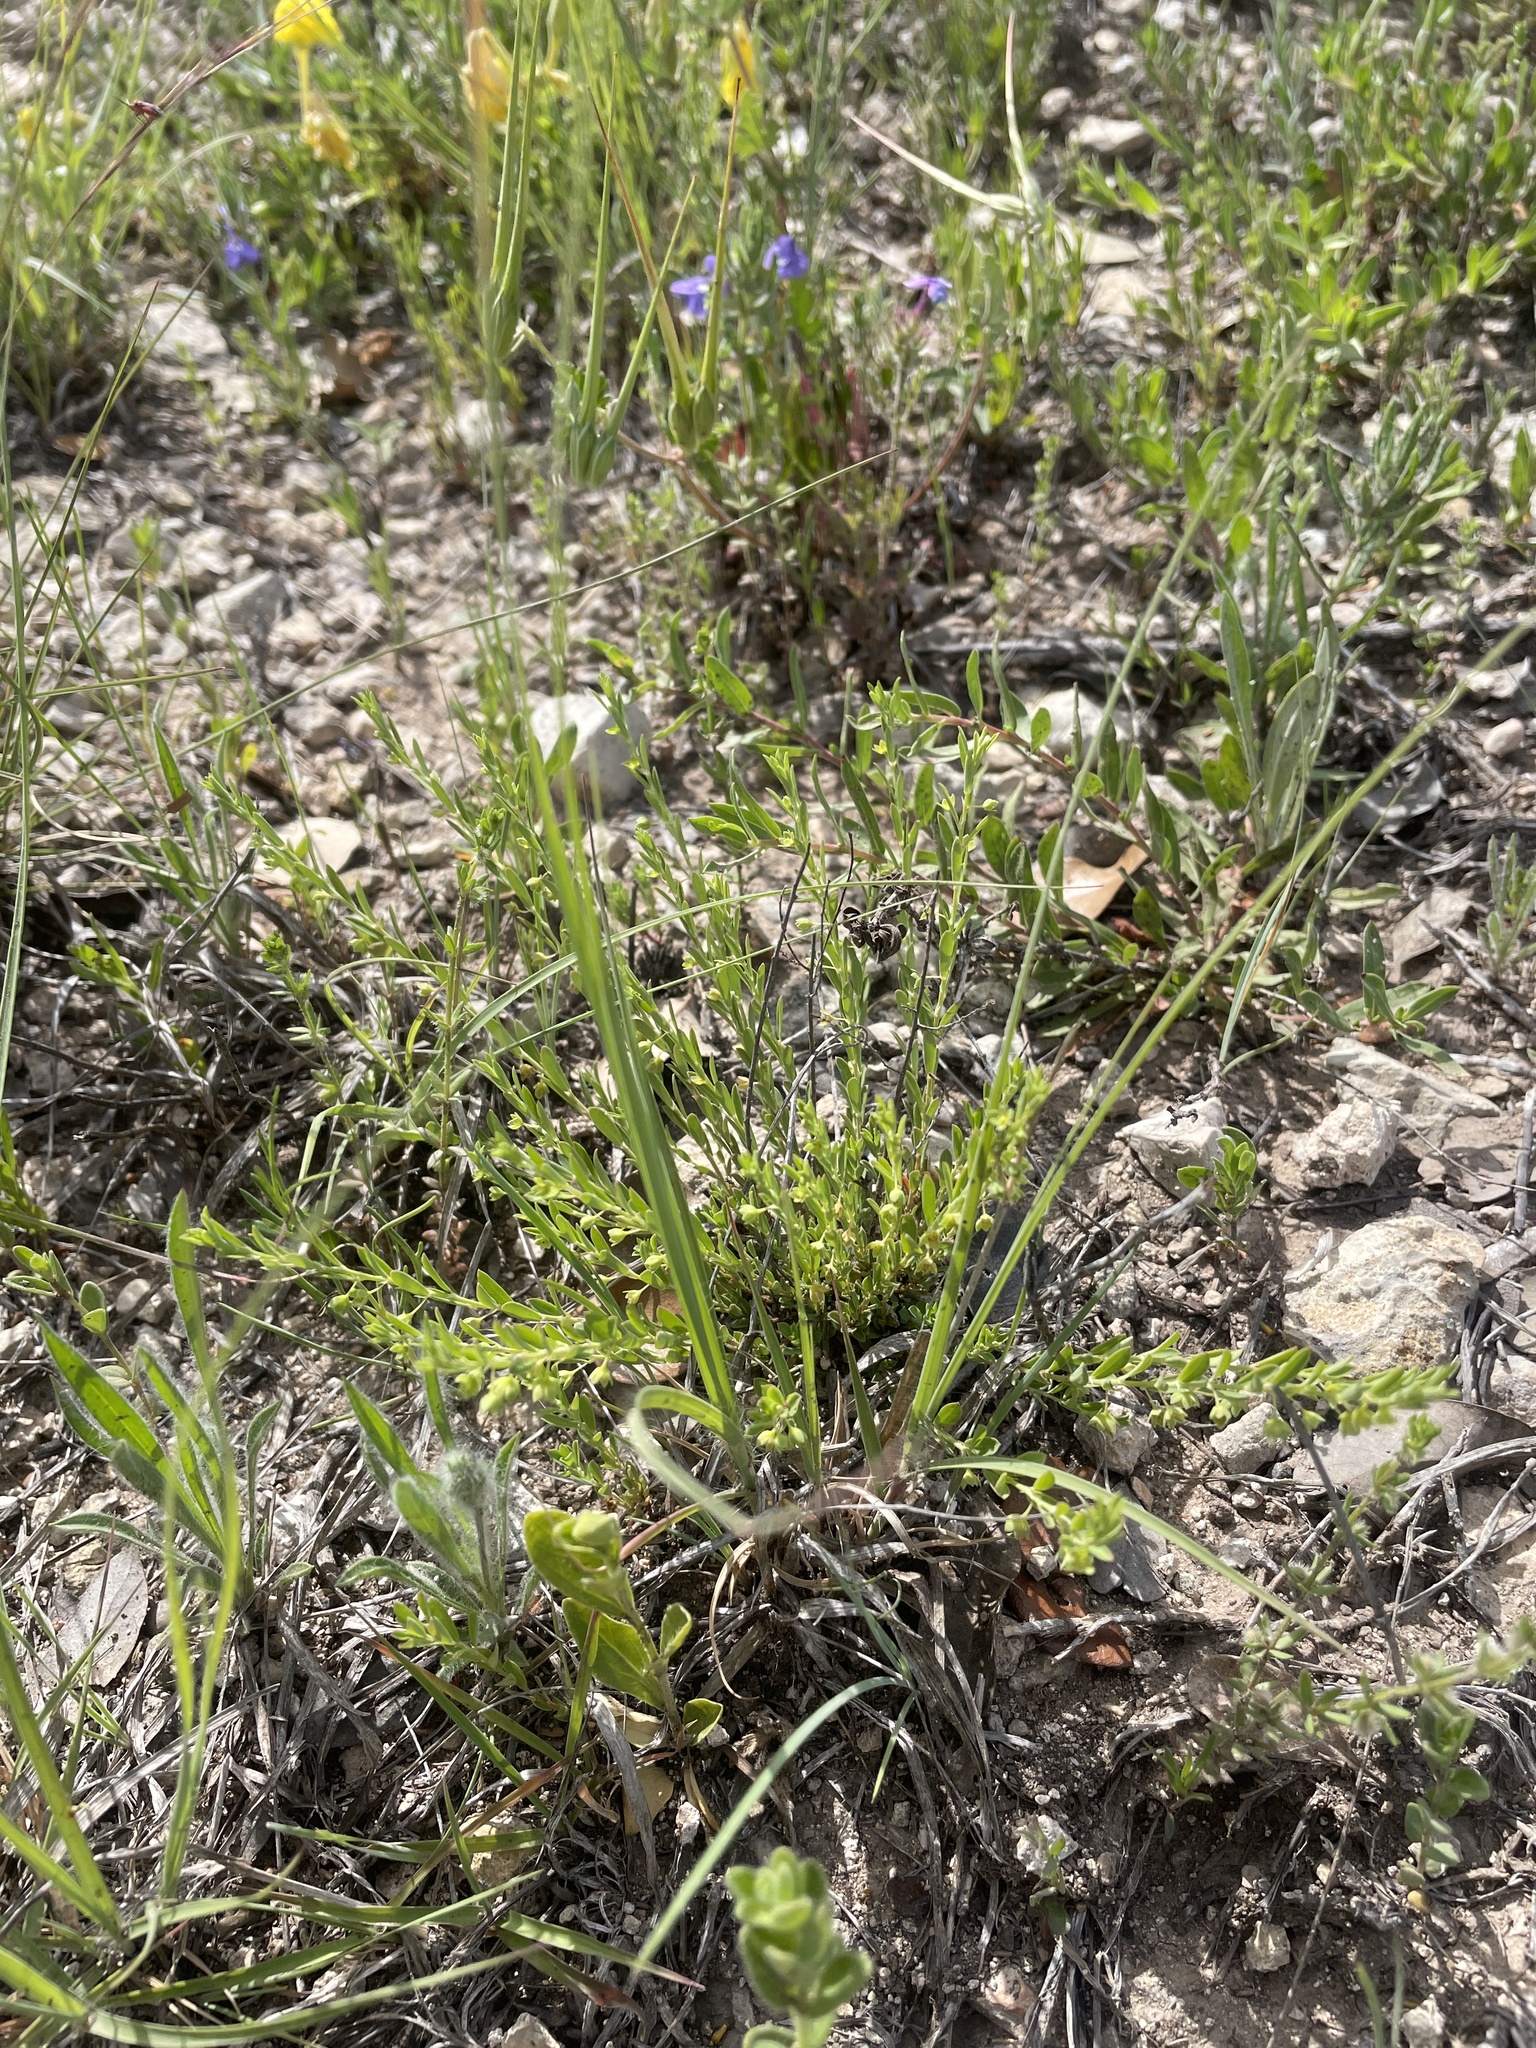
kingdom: Plantae
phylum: Tracheophyta
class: Magnoliopsida
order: Malpighiales
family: Phyllanthaceae
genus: Phyllanthus
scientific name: Phyllanthus polygonoides
